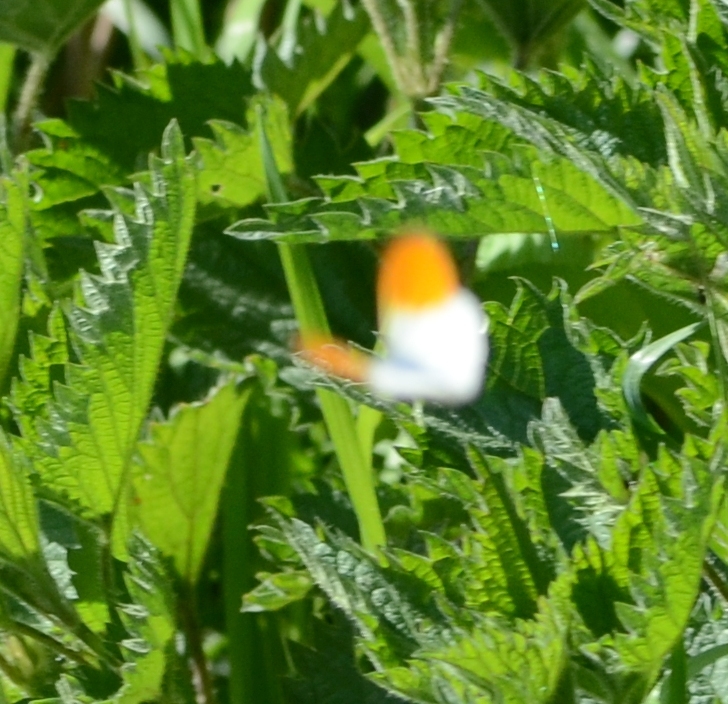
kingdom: Animalia
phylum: Arthropoda
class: Insecta
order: Lepidoptera
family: Pieridae
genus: Anthocharis
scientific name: Anthocharis cardamines
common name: Orange-tip
